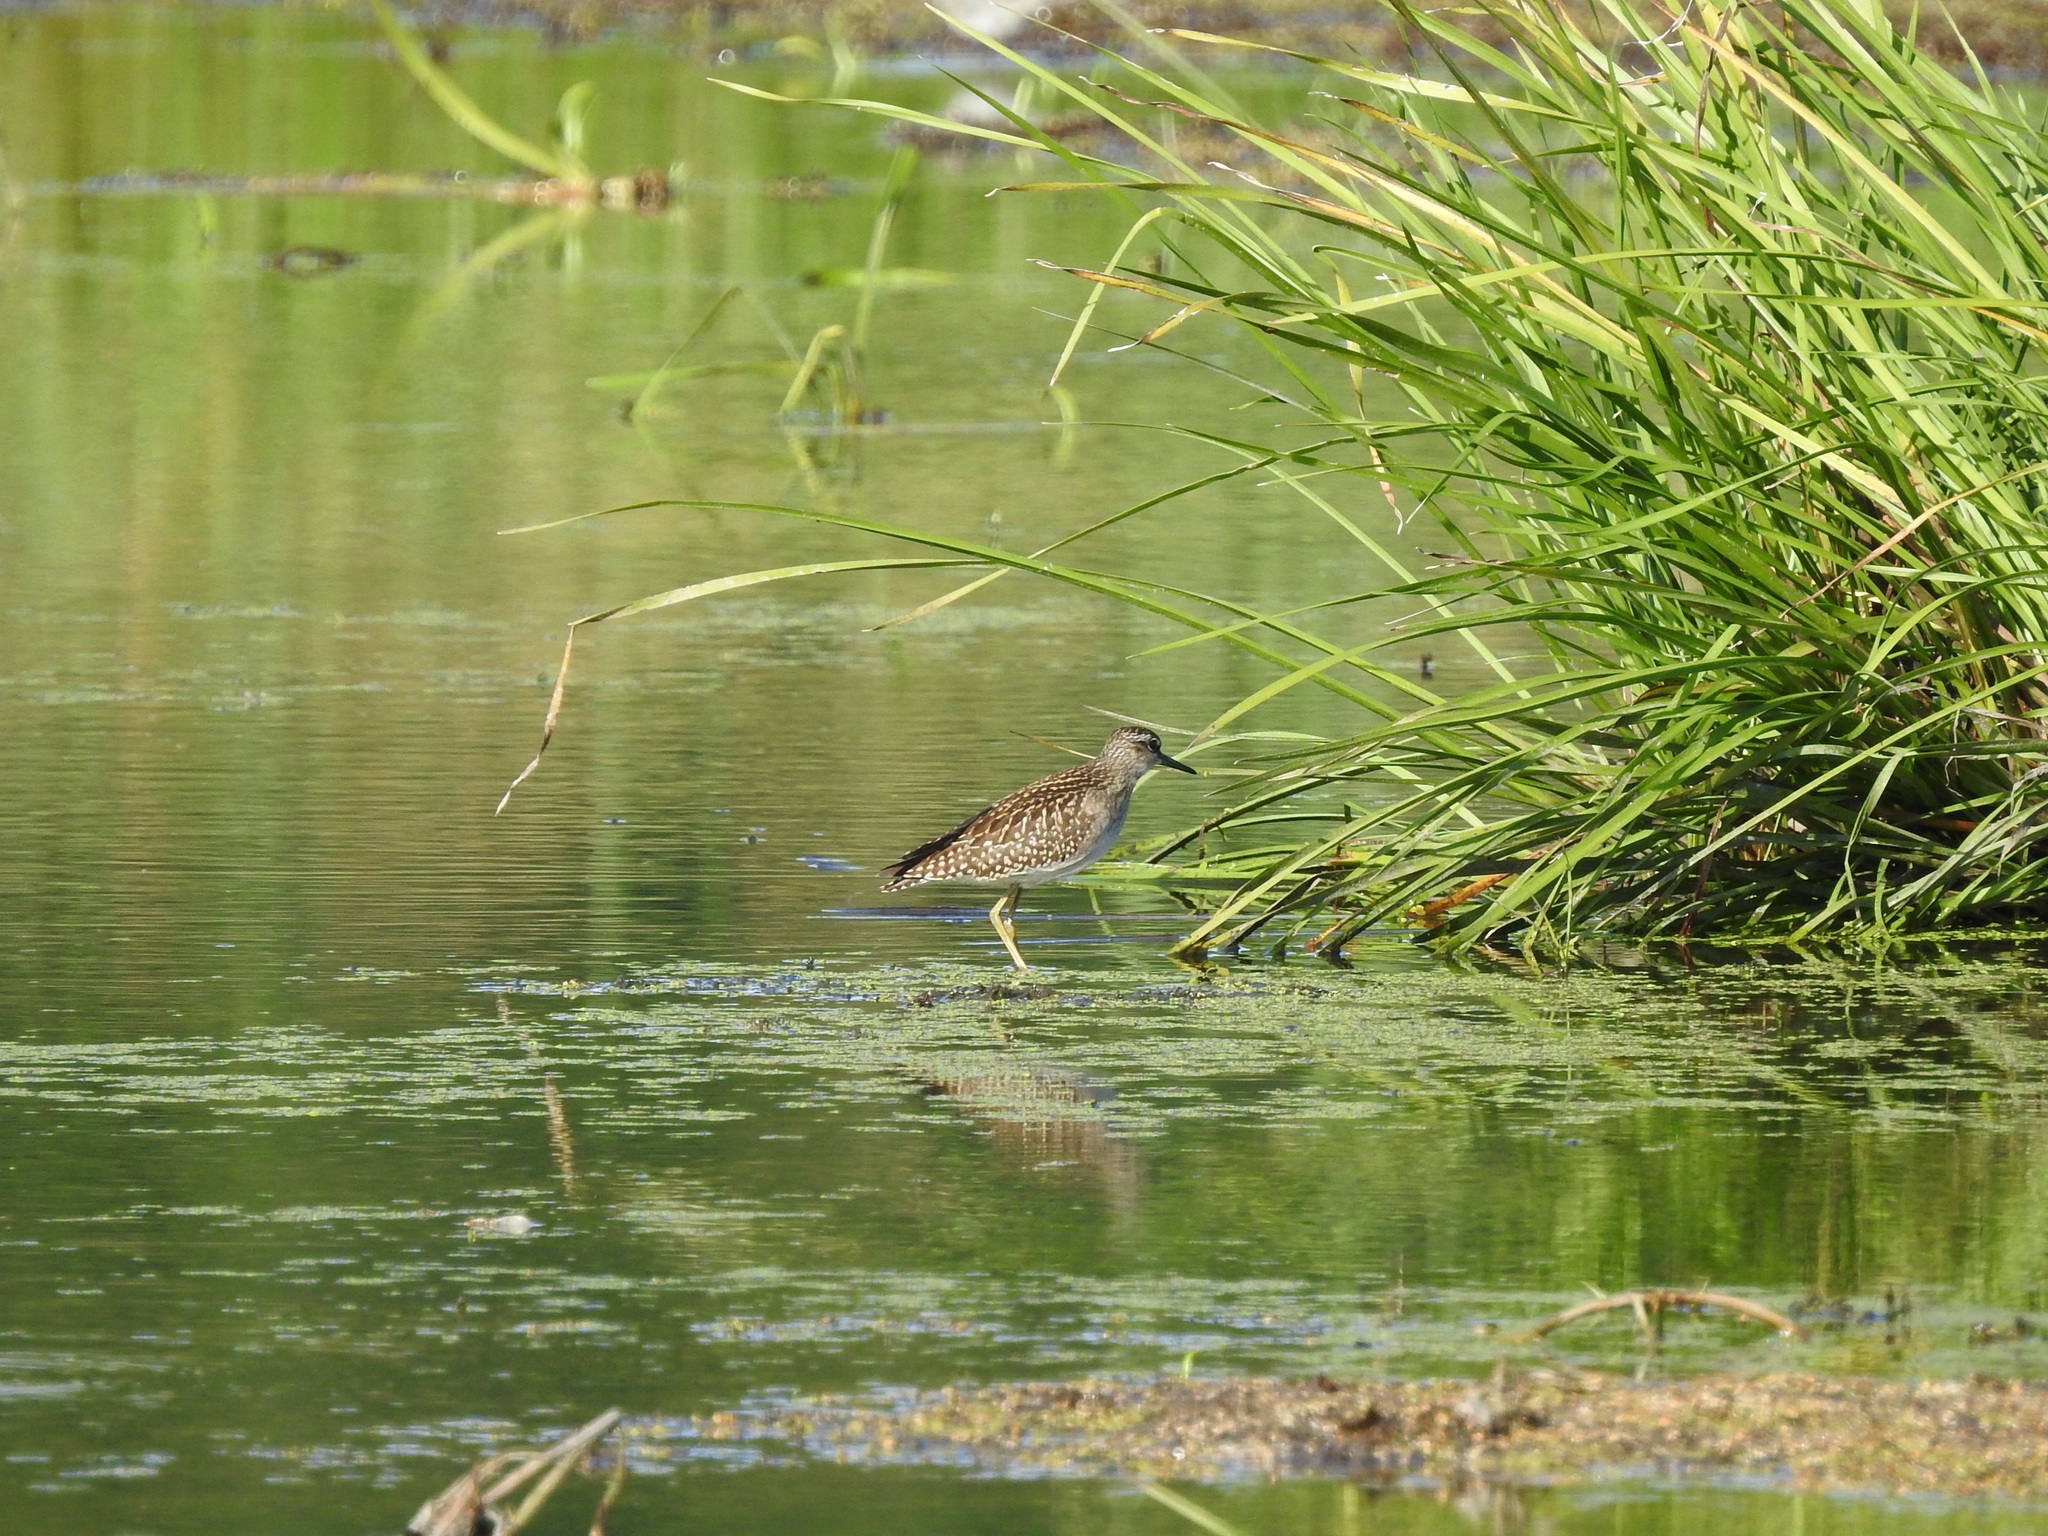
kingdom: Animalia
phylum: Chordata
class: Aves
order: Charadriiformes
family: Scolopacidae
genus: Tringa
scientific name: Tringa glareola
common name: Wood sandpiper
